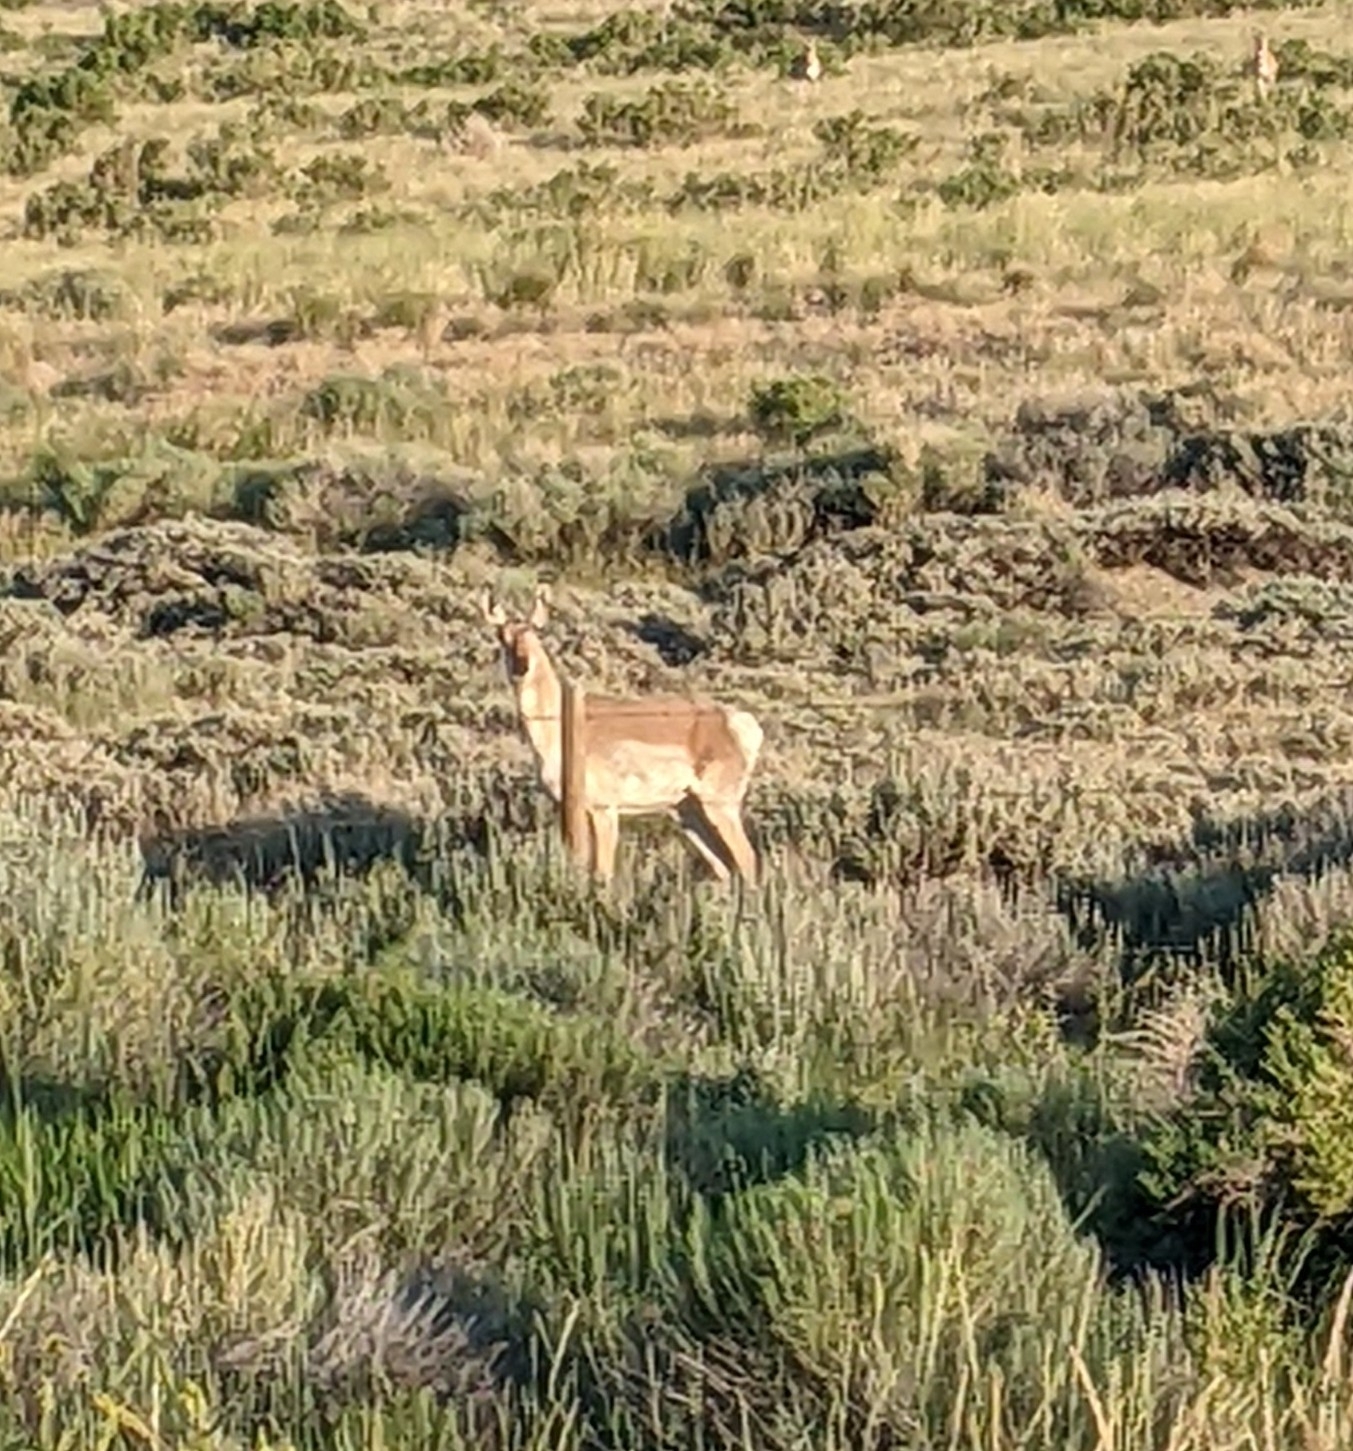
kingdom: Animalia
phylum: Chordata
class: Mammalia
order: Artiodactyla
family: Antilocapridae
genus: Antilocapra
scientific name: Antilocapra americana
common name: Pronghorn
